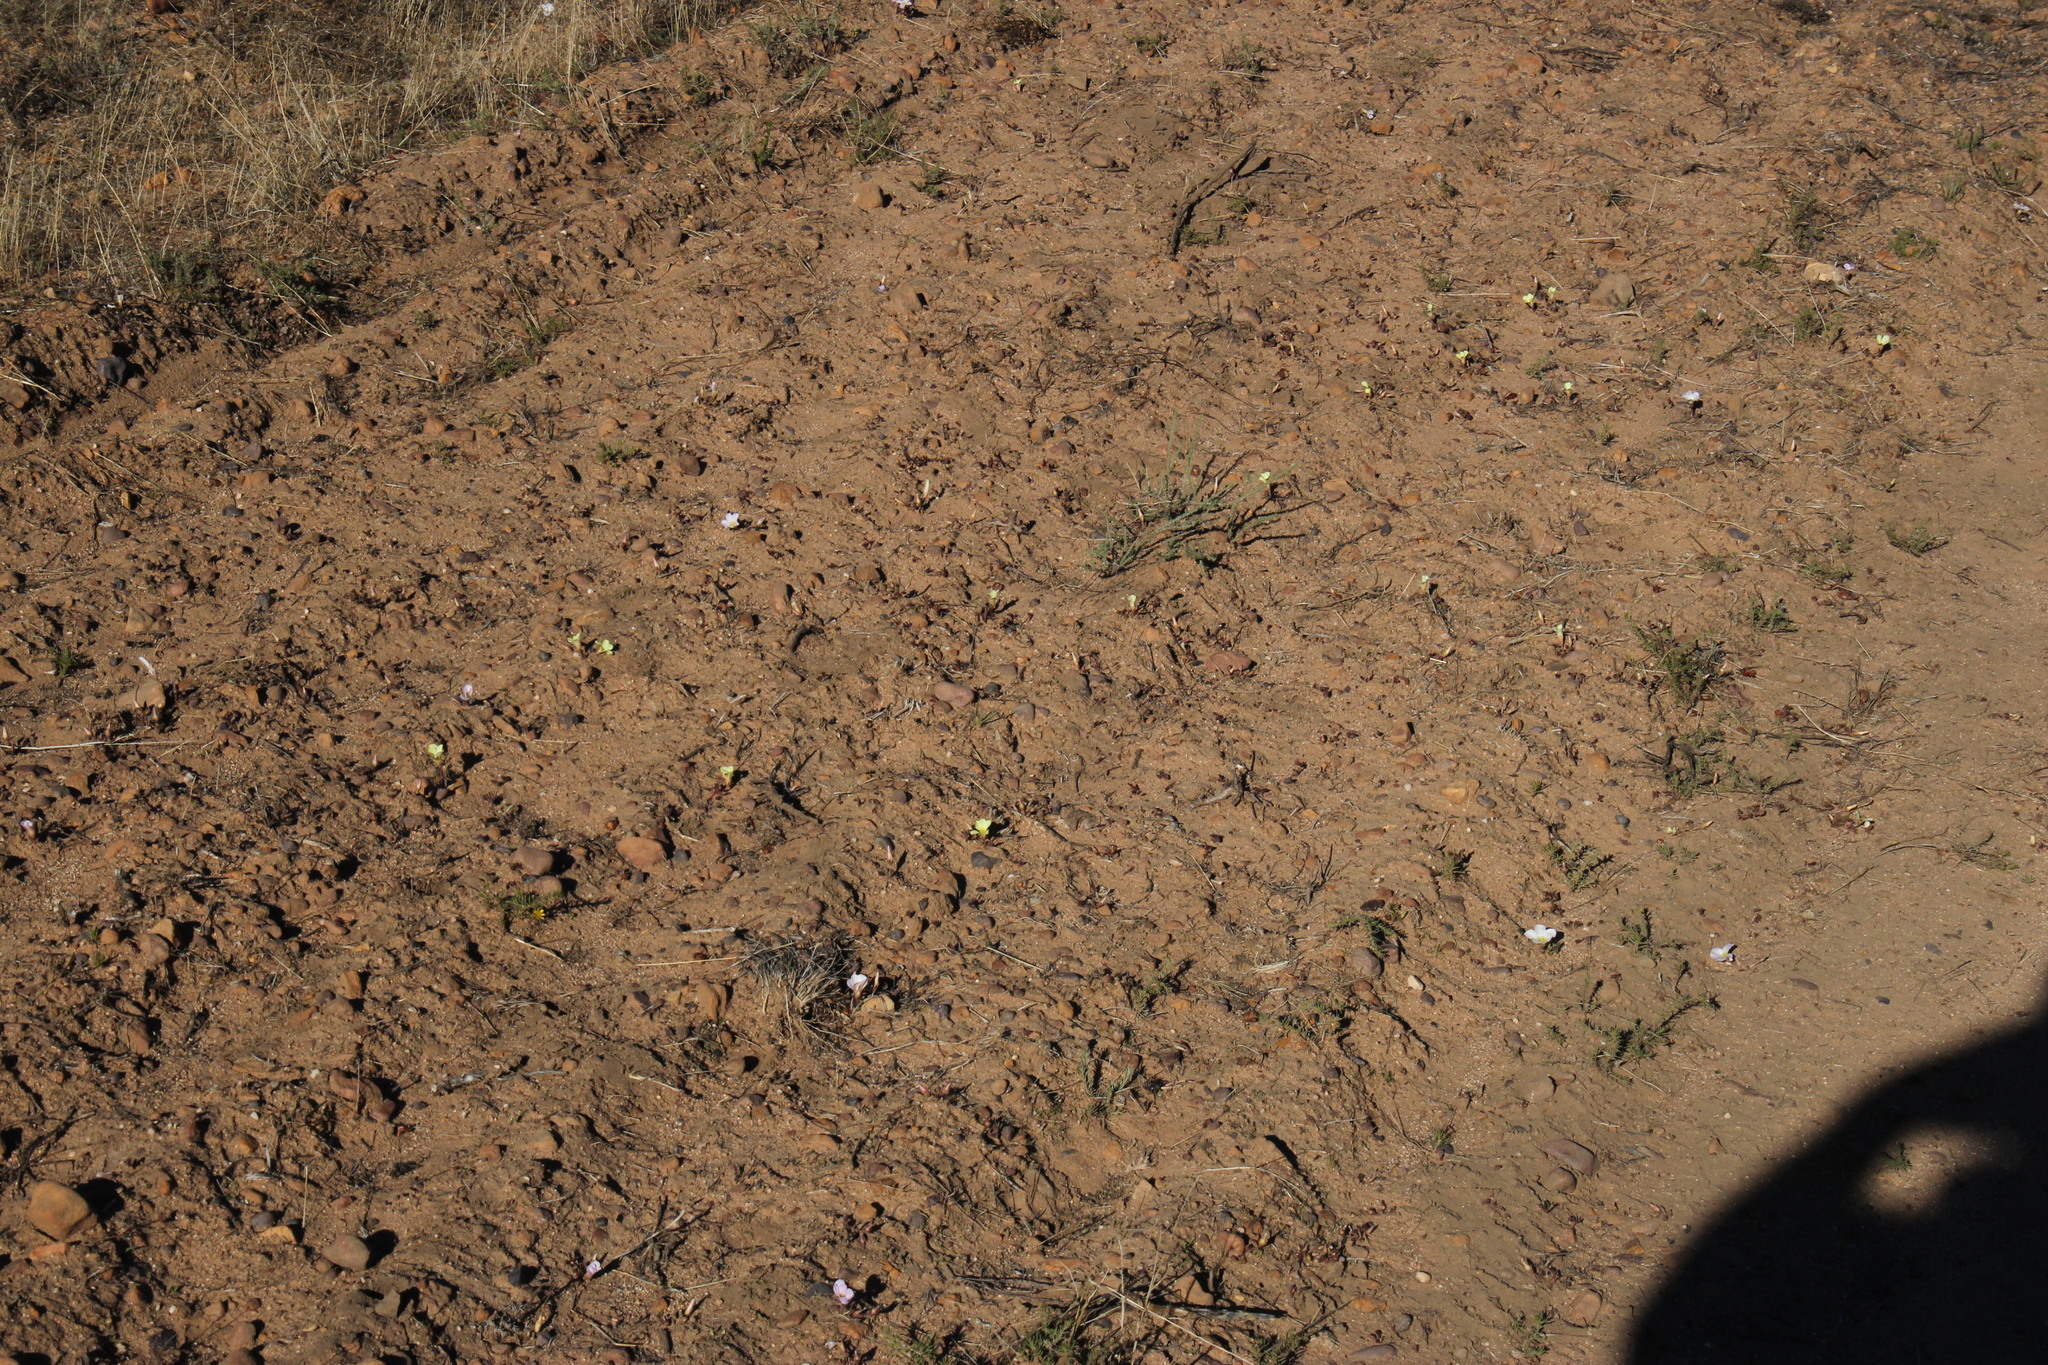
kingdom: Plantae
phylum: Tracheophyta
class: Magnoliopsida
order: Oxalidales
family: Oxalidaceae
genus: Oxalis
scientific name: Oxalis flava
